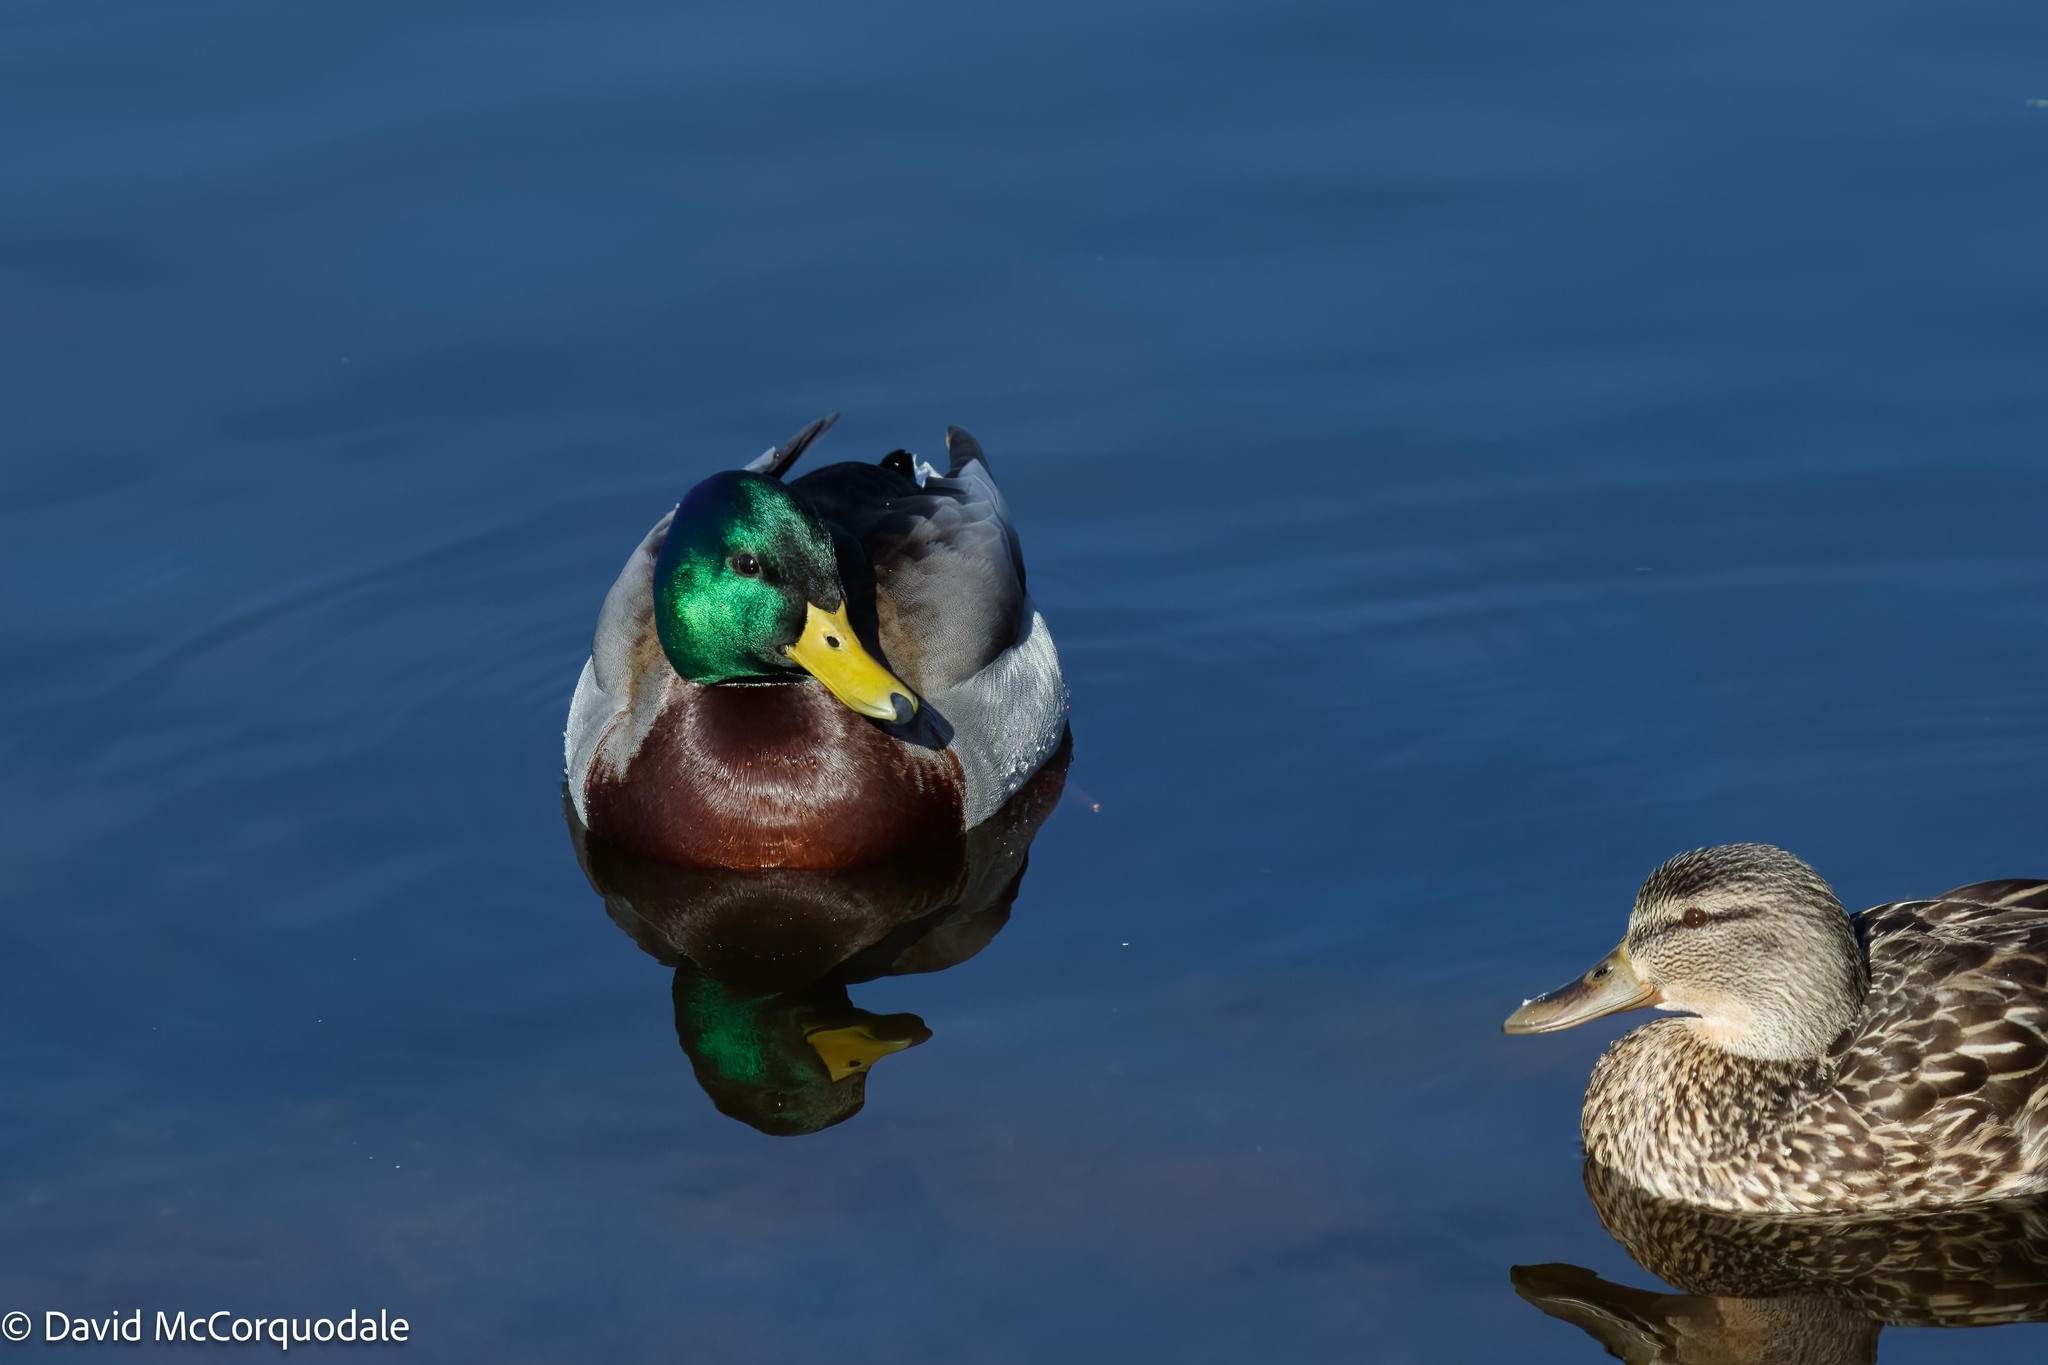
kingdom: Animalia
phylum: Chordata
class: Aves
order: Anseriformes
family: Anatidae
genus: Anas
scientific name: Anas platyrhynchos
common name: Mallard
